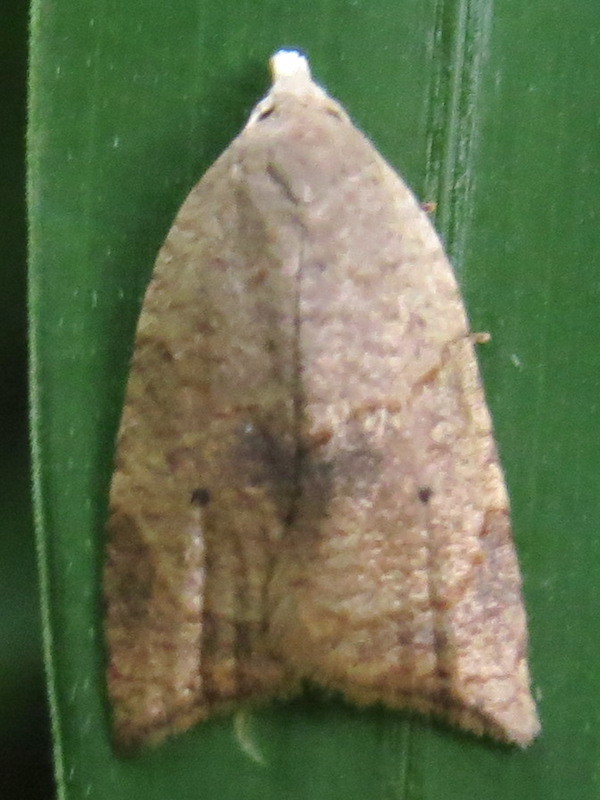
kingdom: Animalia
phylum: Arthropoda
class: Insecta
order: Lepidoptera
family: Tortricidae
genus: Coelostathma
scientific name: Coelostathma discopunctana
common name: Batman moth
